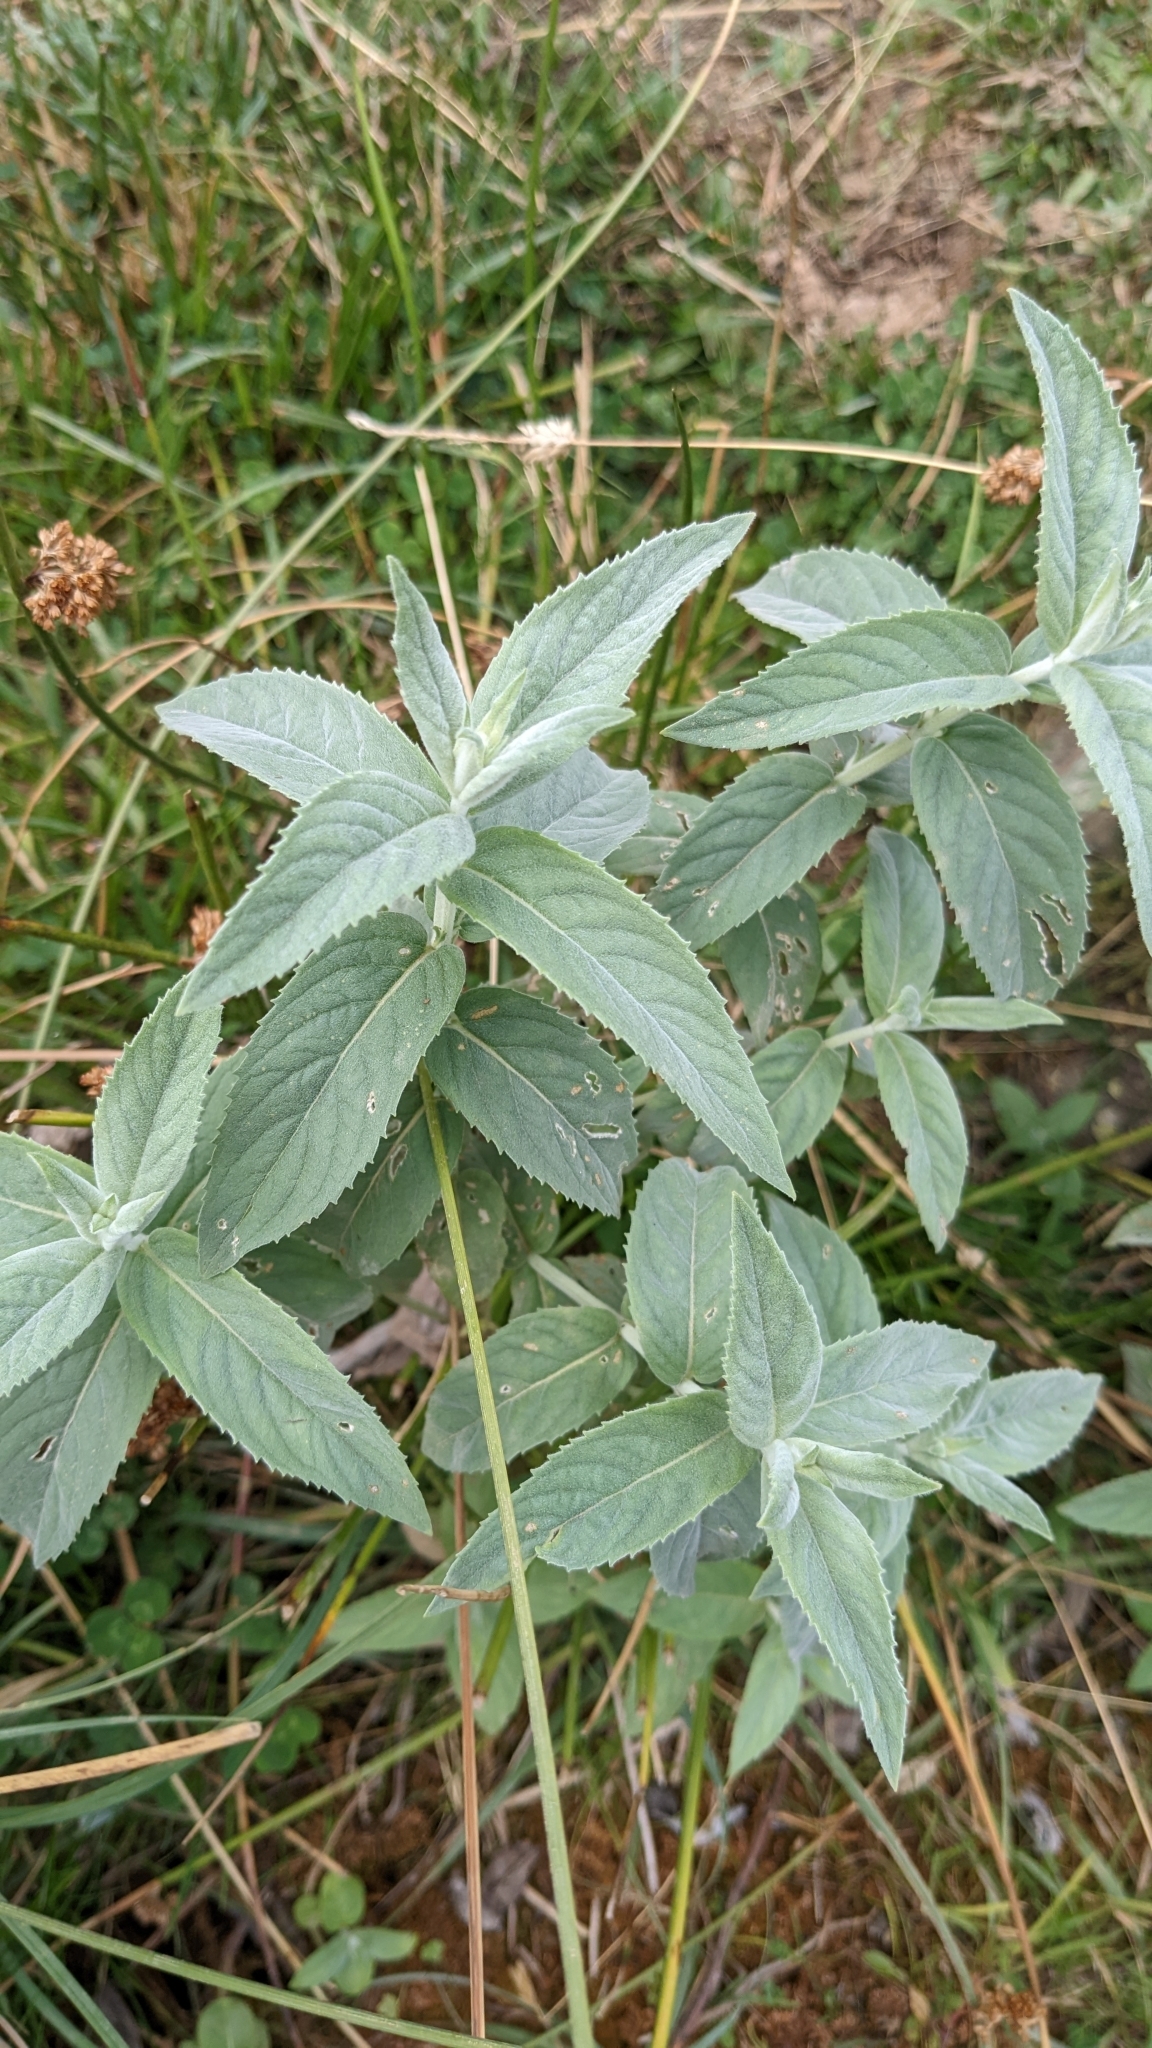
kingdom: Plantae
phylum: Tracheophyta
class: Magnoliopsida
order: Lamiales
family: Lamiaceae
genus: Mentha
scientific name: Mentha longifolia
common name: Horse mint
